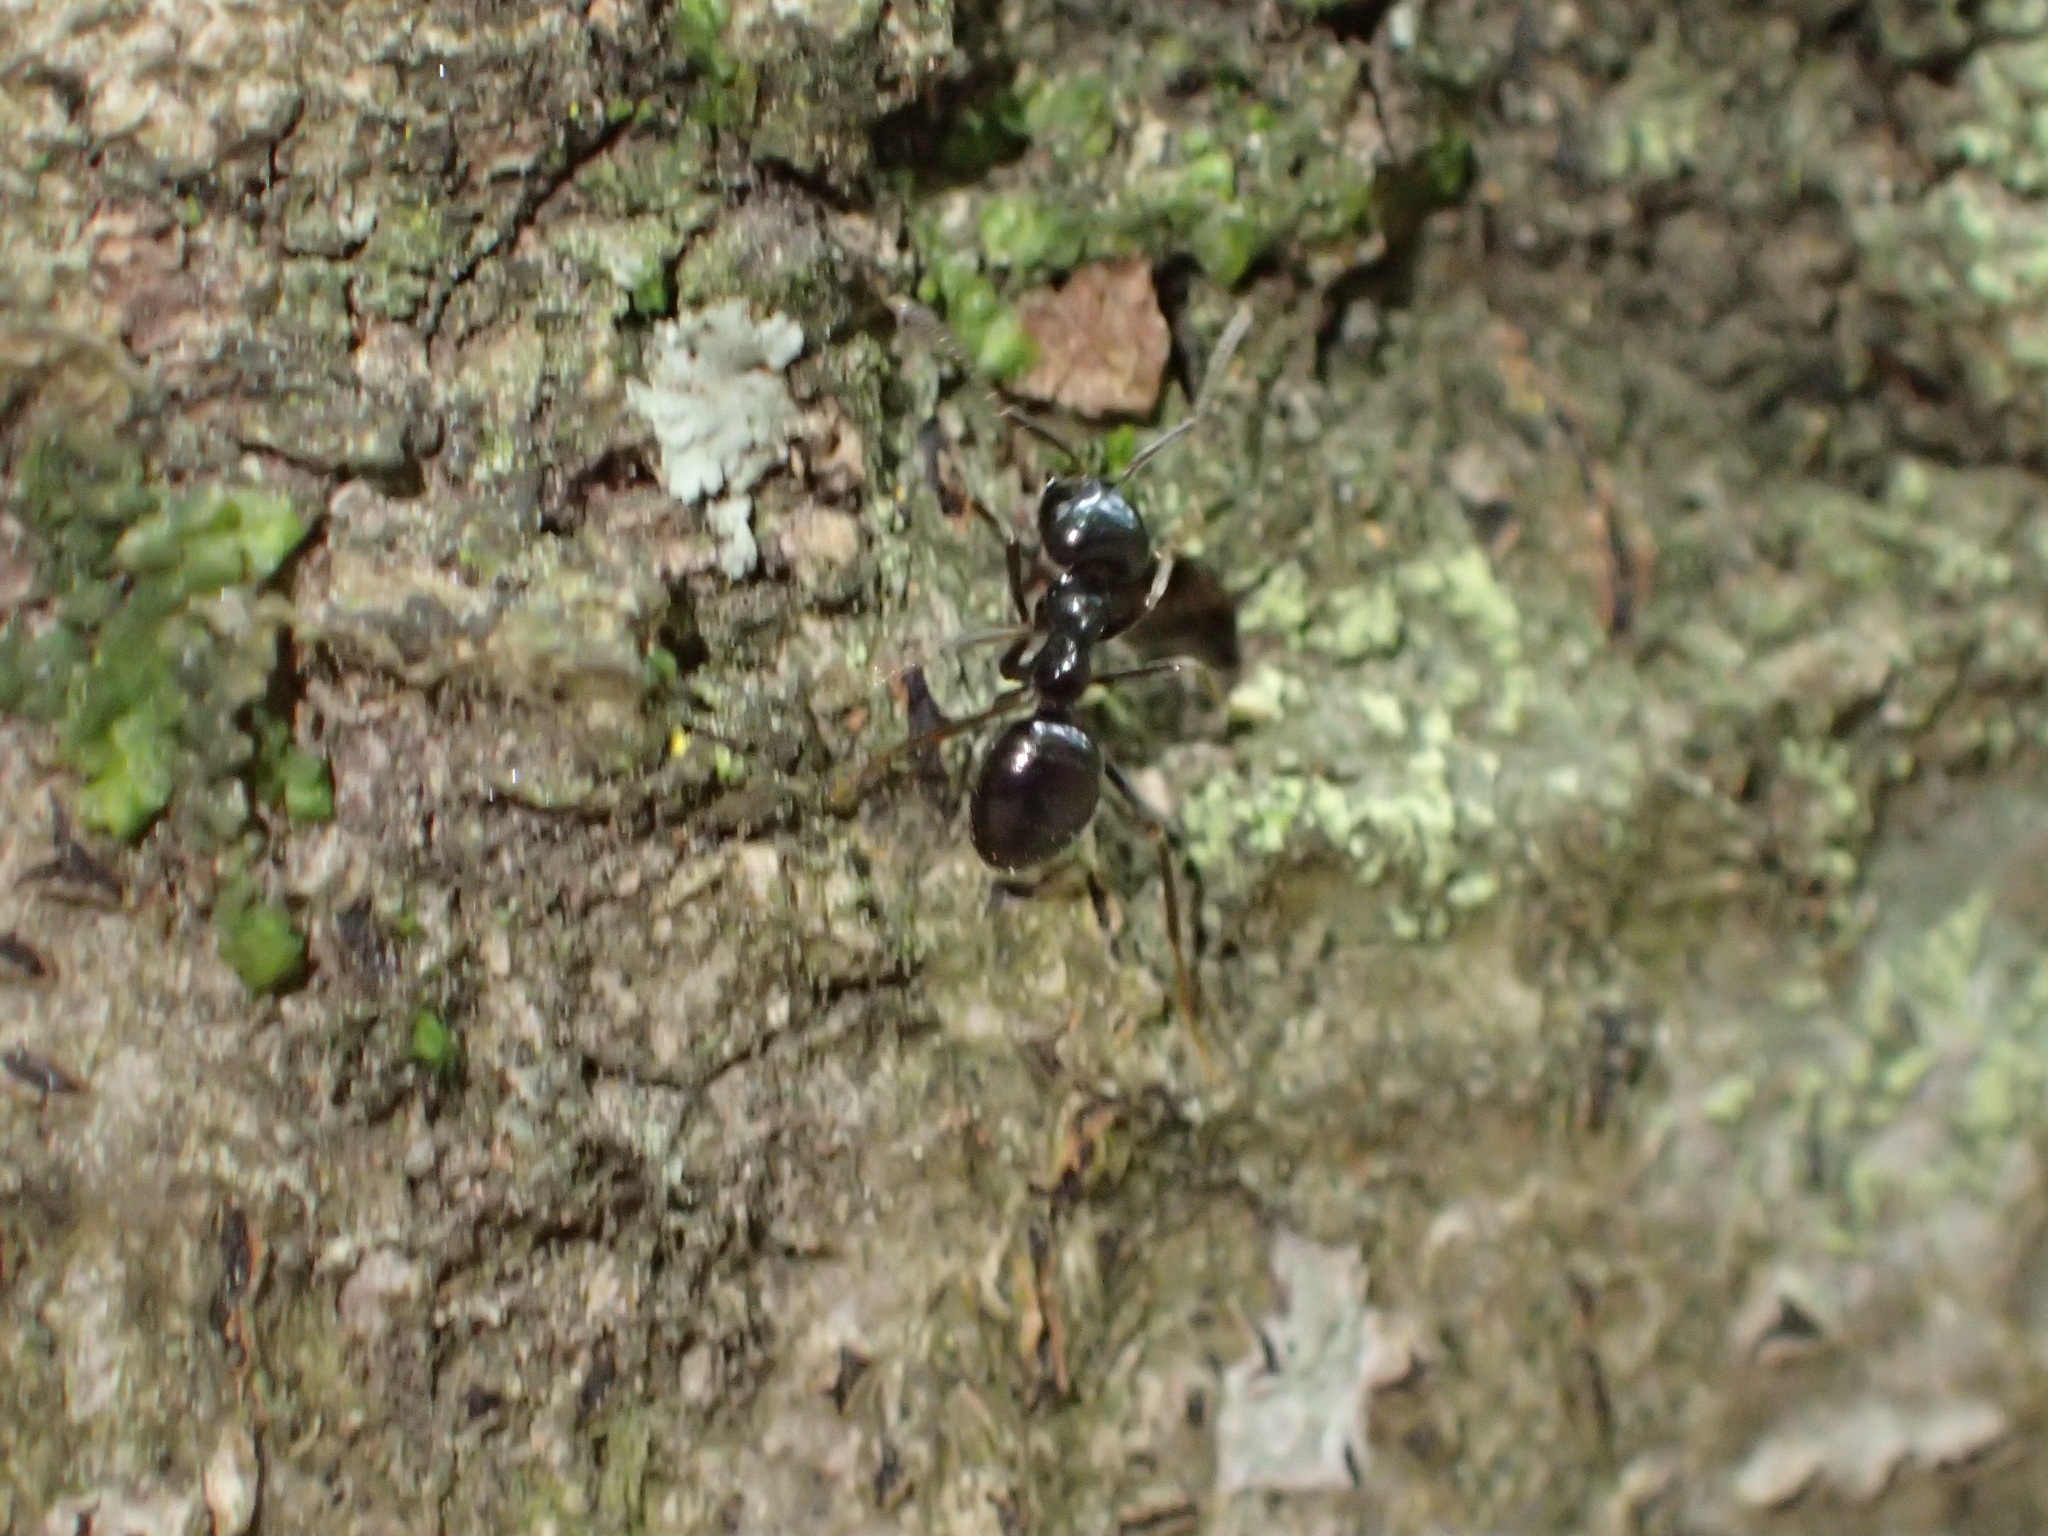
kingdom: Animalia
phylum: Arthropoda
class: Insecta
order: Hymenoptera
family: Formicidae
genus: Lasius
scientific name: Lasius fuliginosus
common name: Jet ant
